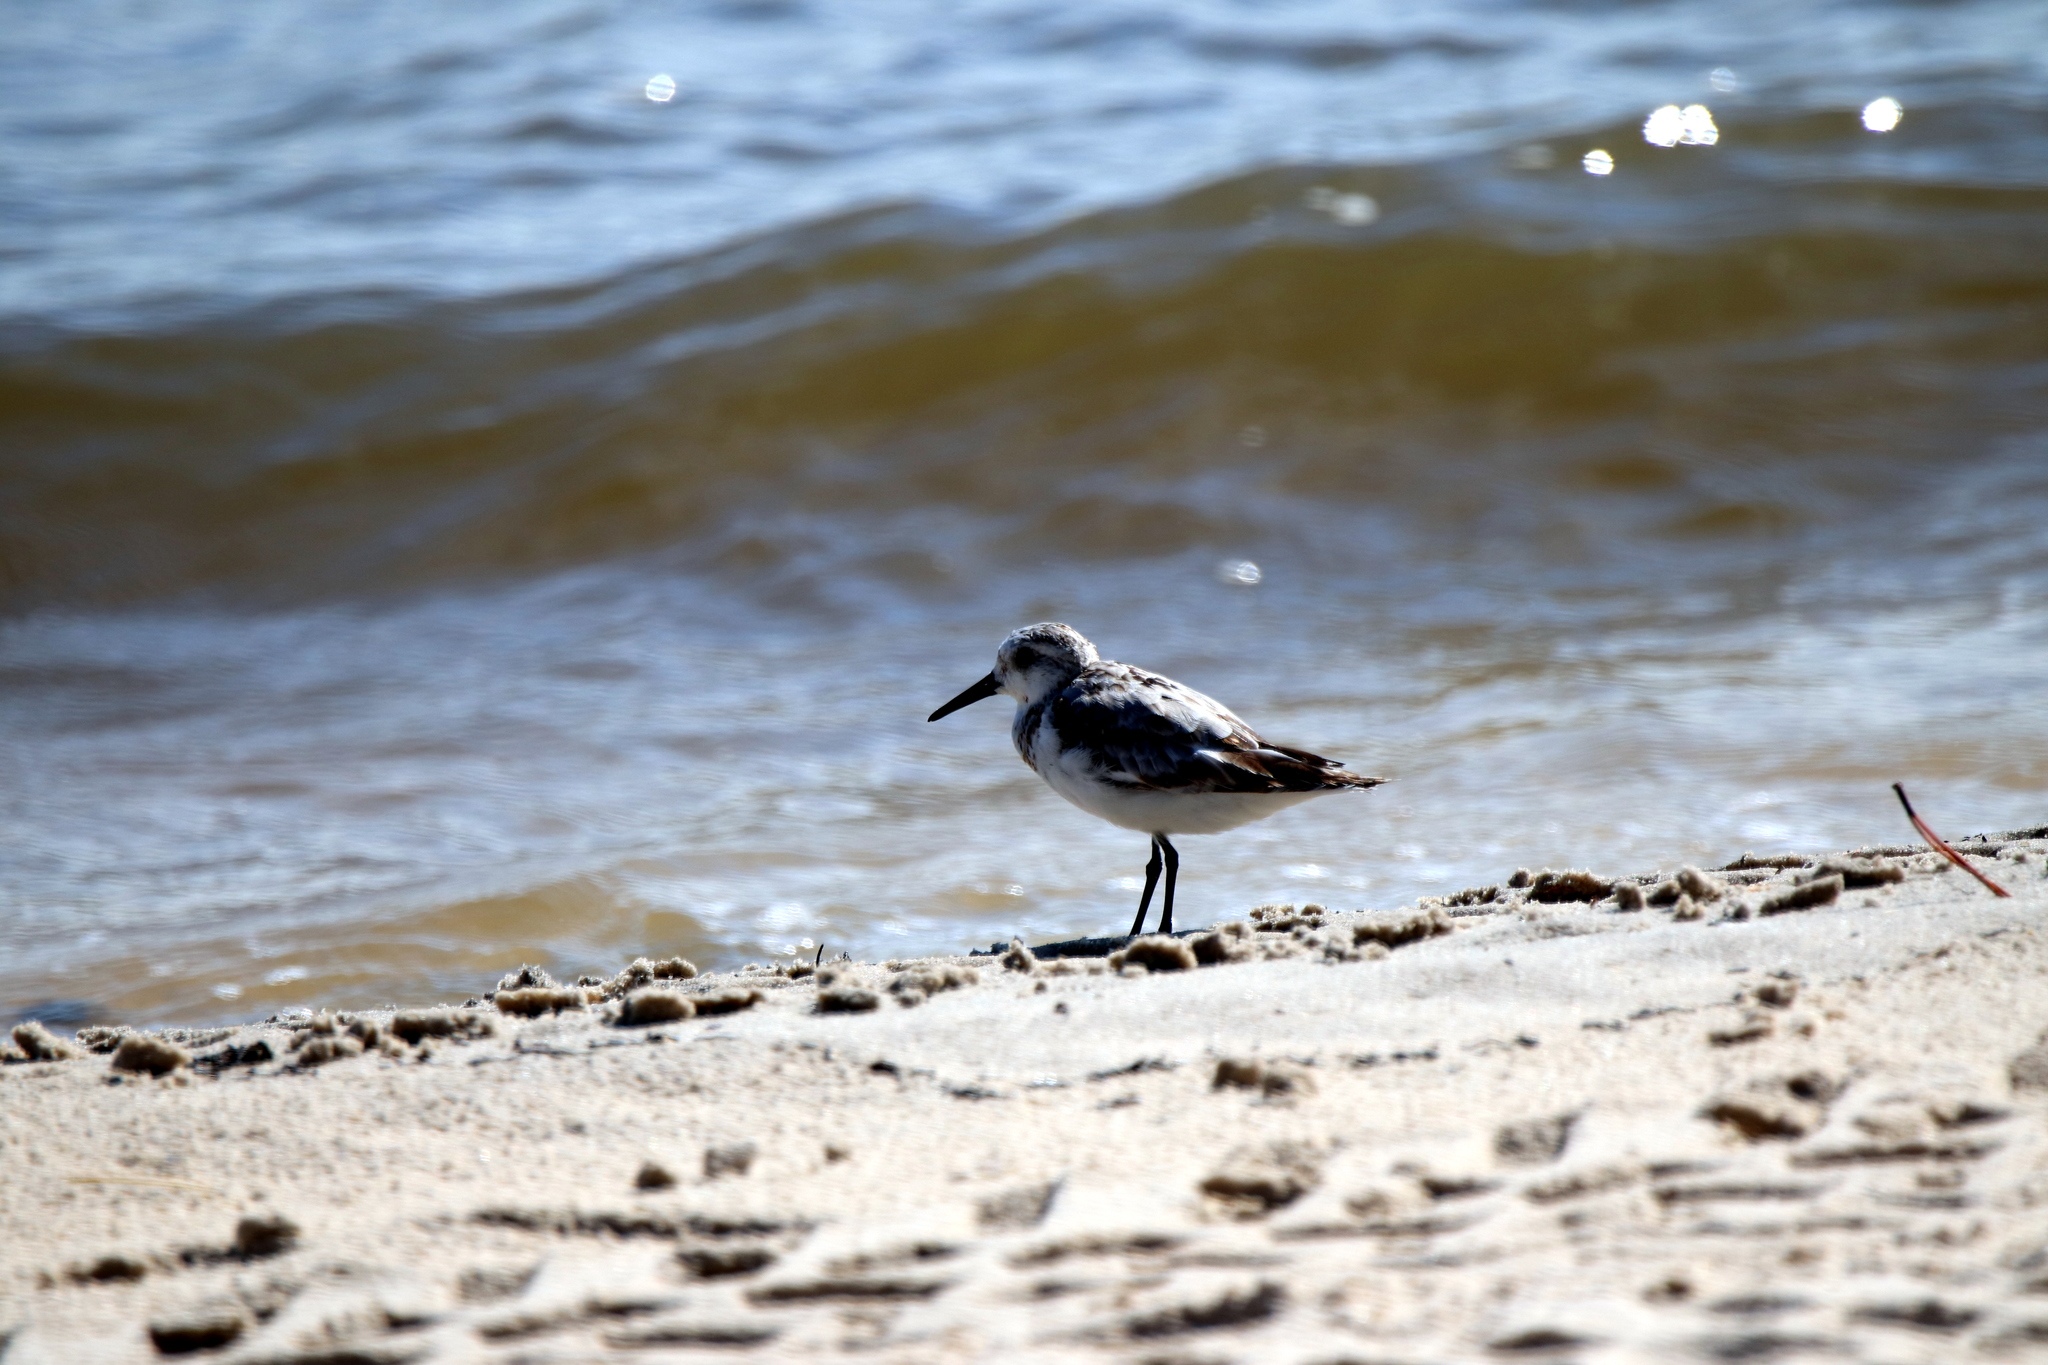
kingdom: Animalia
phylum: Chordata
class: Aves
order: Charadriiformes
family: Scolopacidae
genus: Calidris
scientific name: Calidris alba
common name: Sanderling
